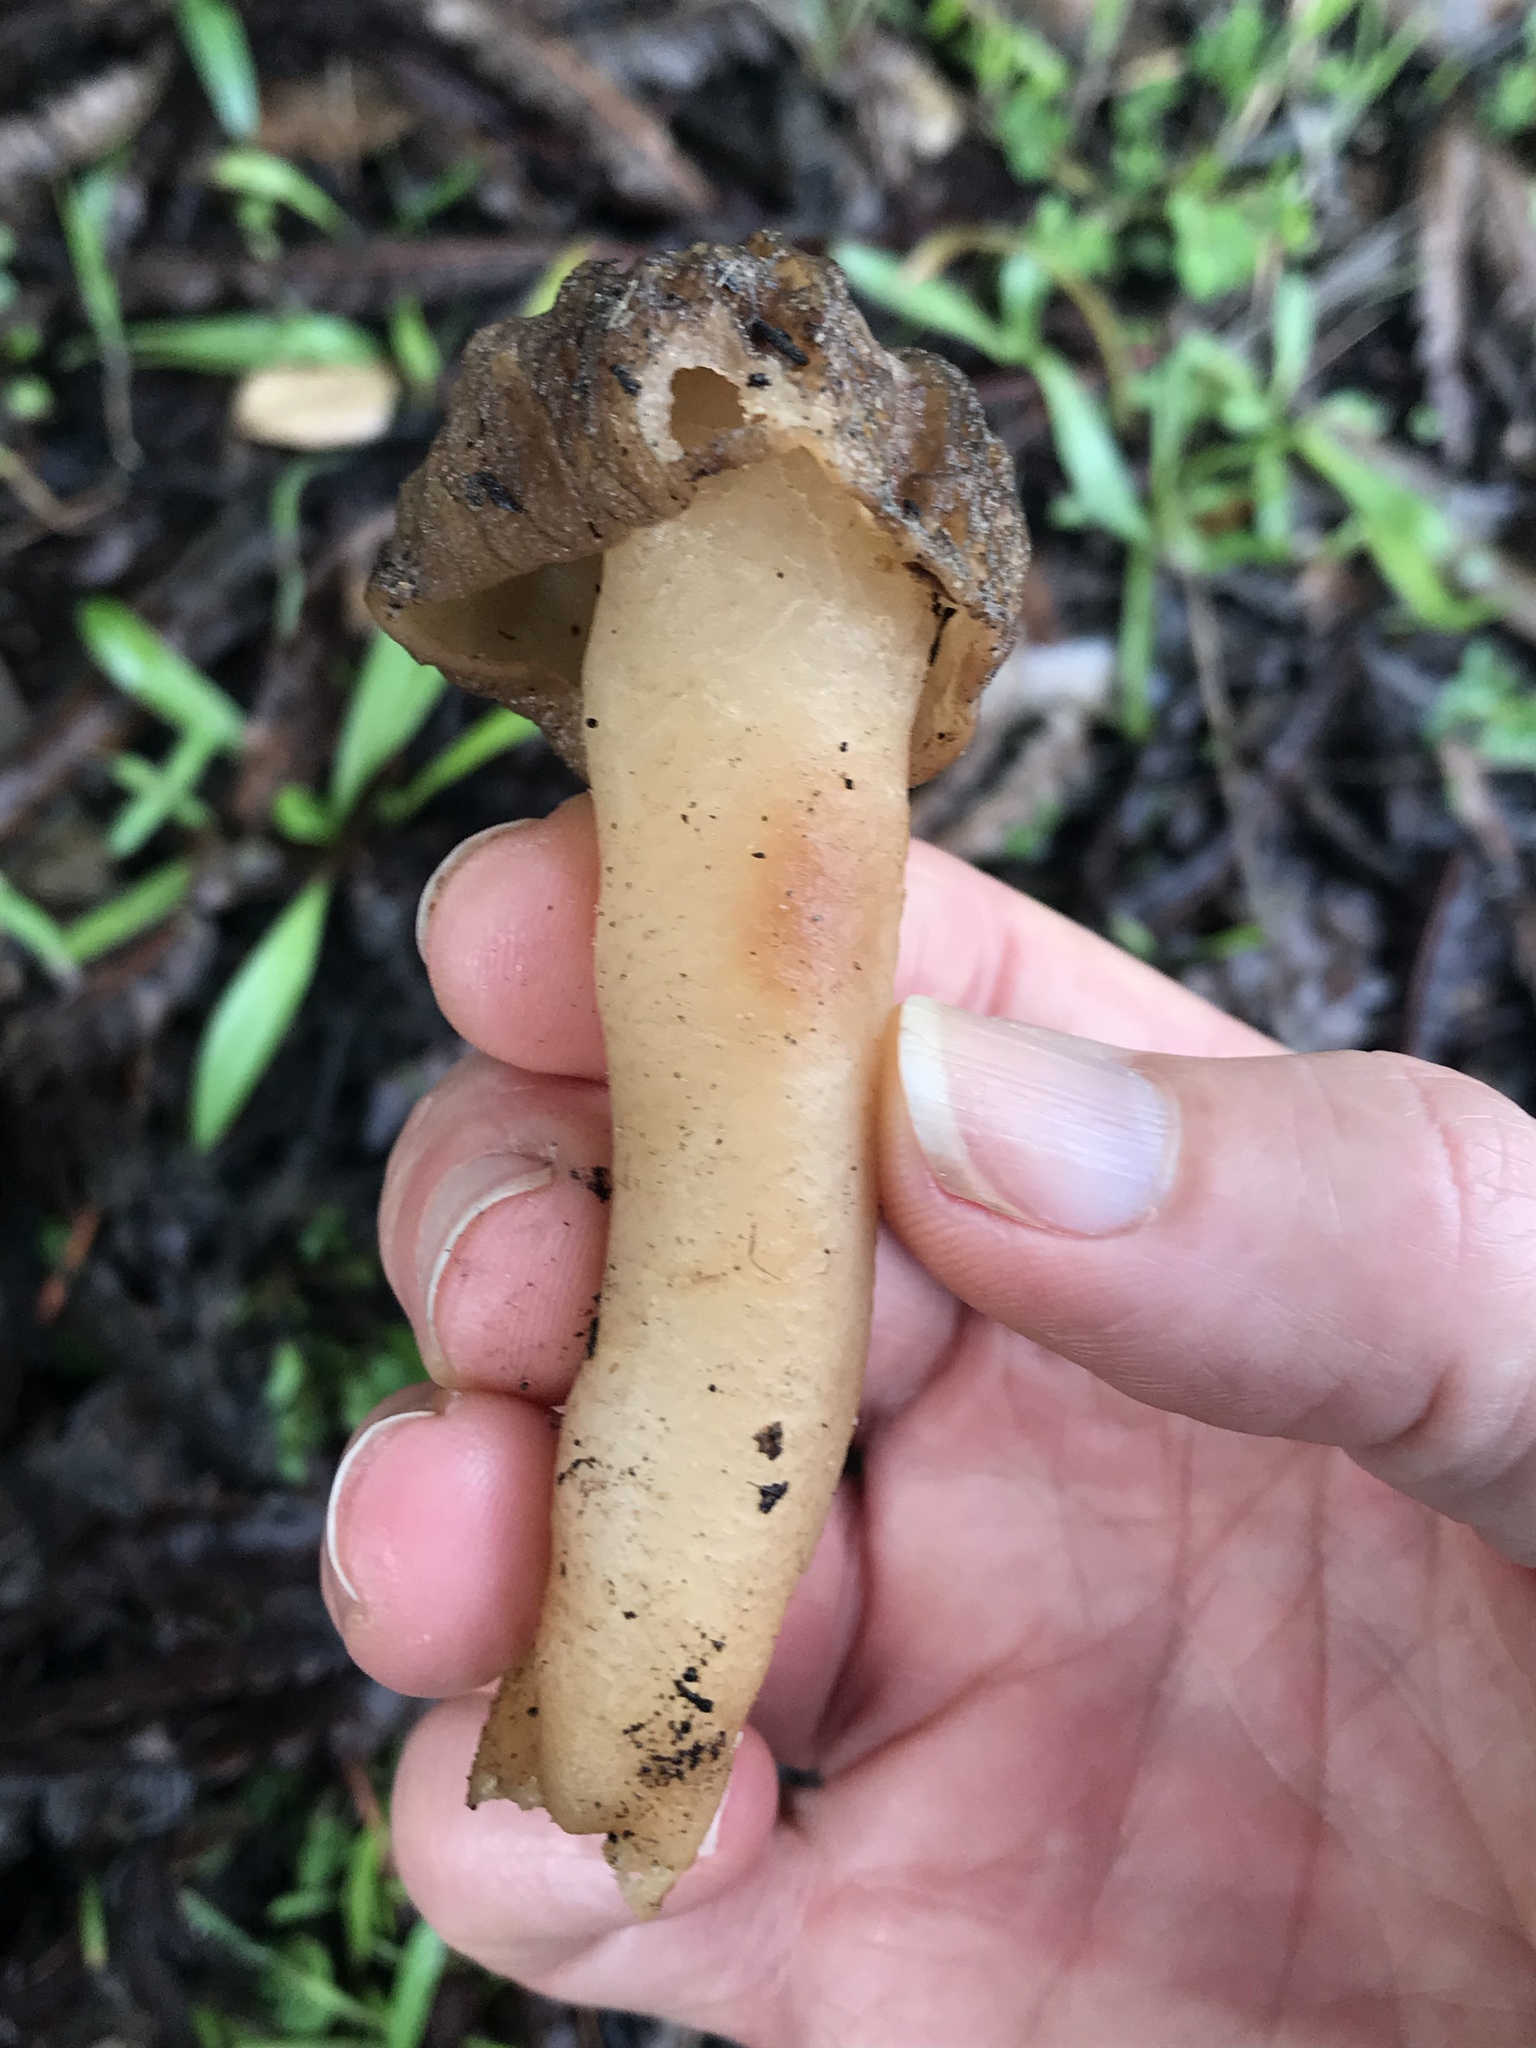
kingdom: Fungi
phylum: Ascomycota
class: Pezizomycetes
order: Pezizales
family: Morchellaceae
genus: Verpa
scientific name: Verpa bohemica
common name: Wrinkled thimble morel
